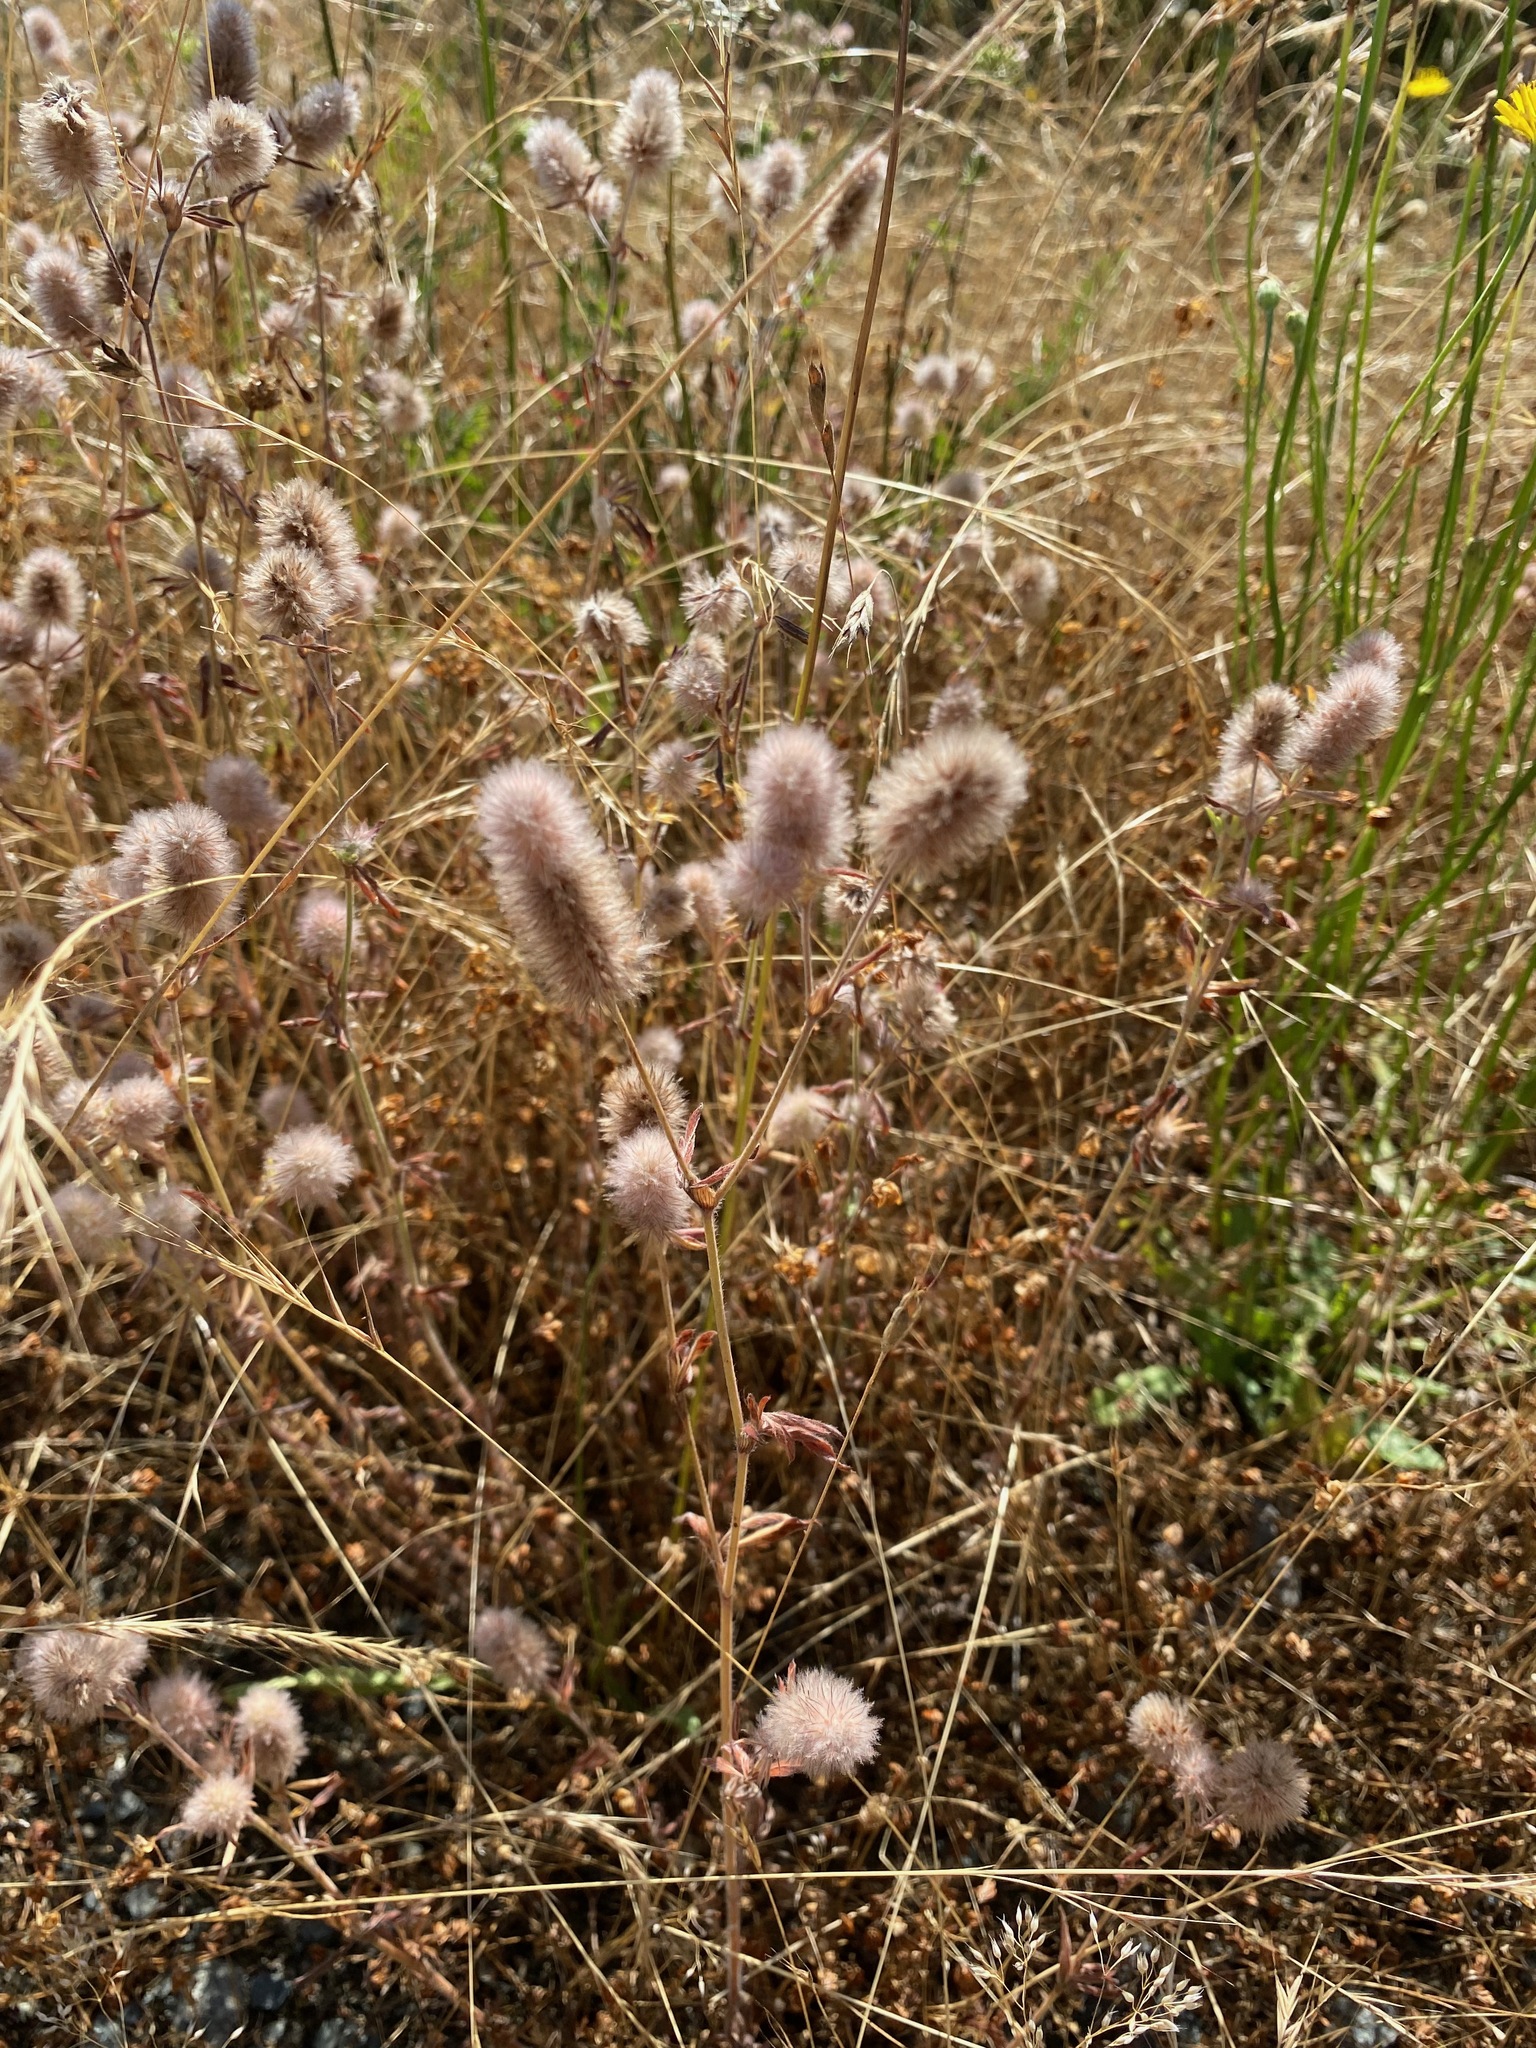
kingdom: Plantae
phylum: Tracheophyta
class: Magnoliopsida
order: Fabales
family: Fabaceae
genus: Trifolium
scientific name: Trifolium arvense
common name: Hare's-foot clover
